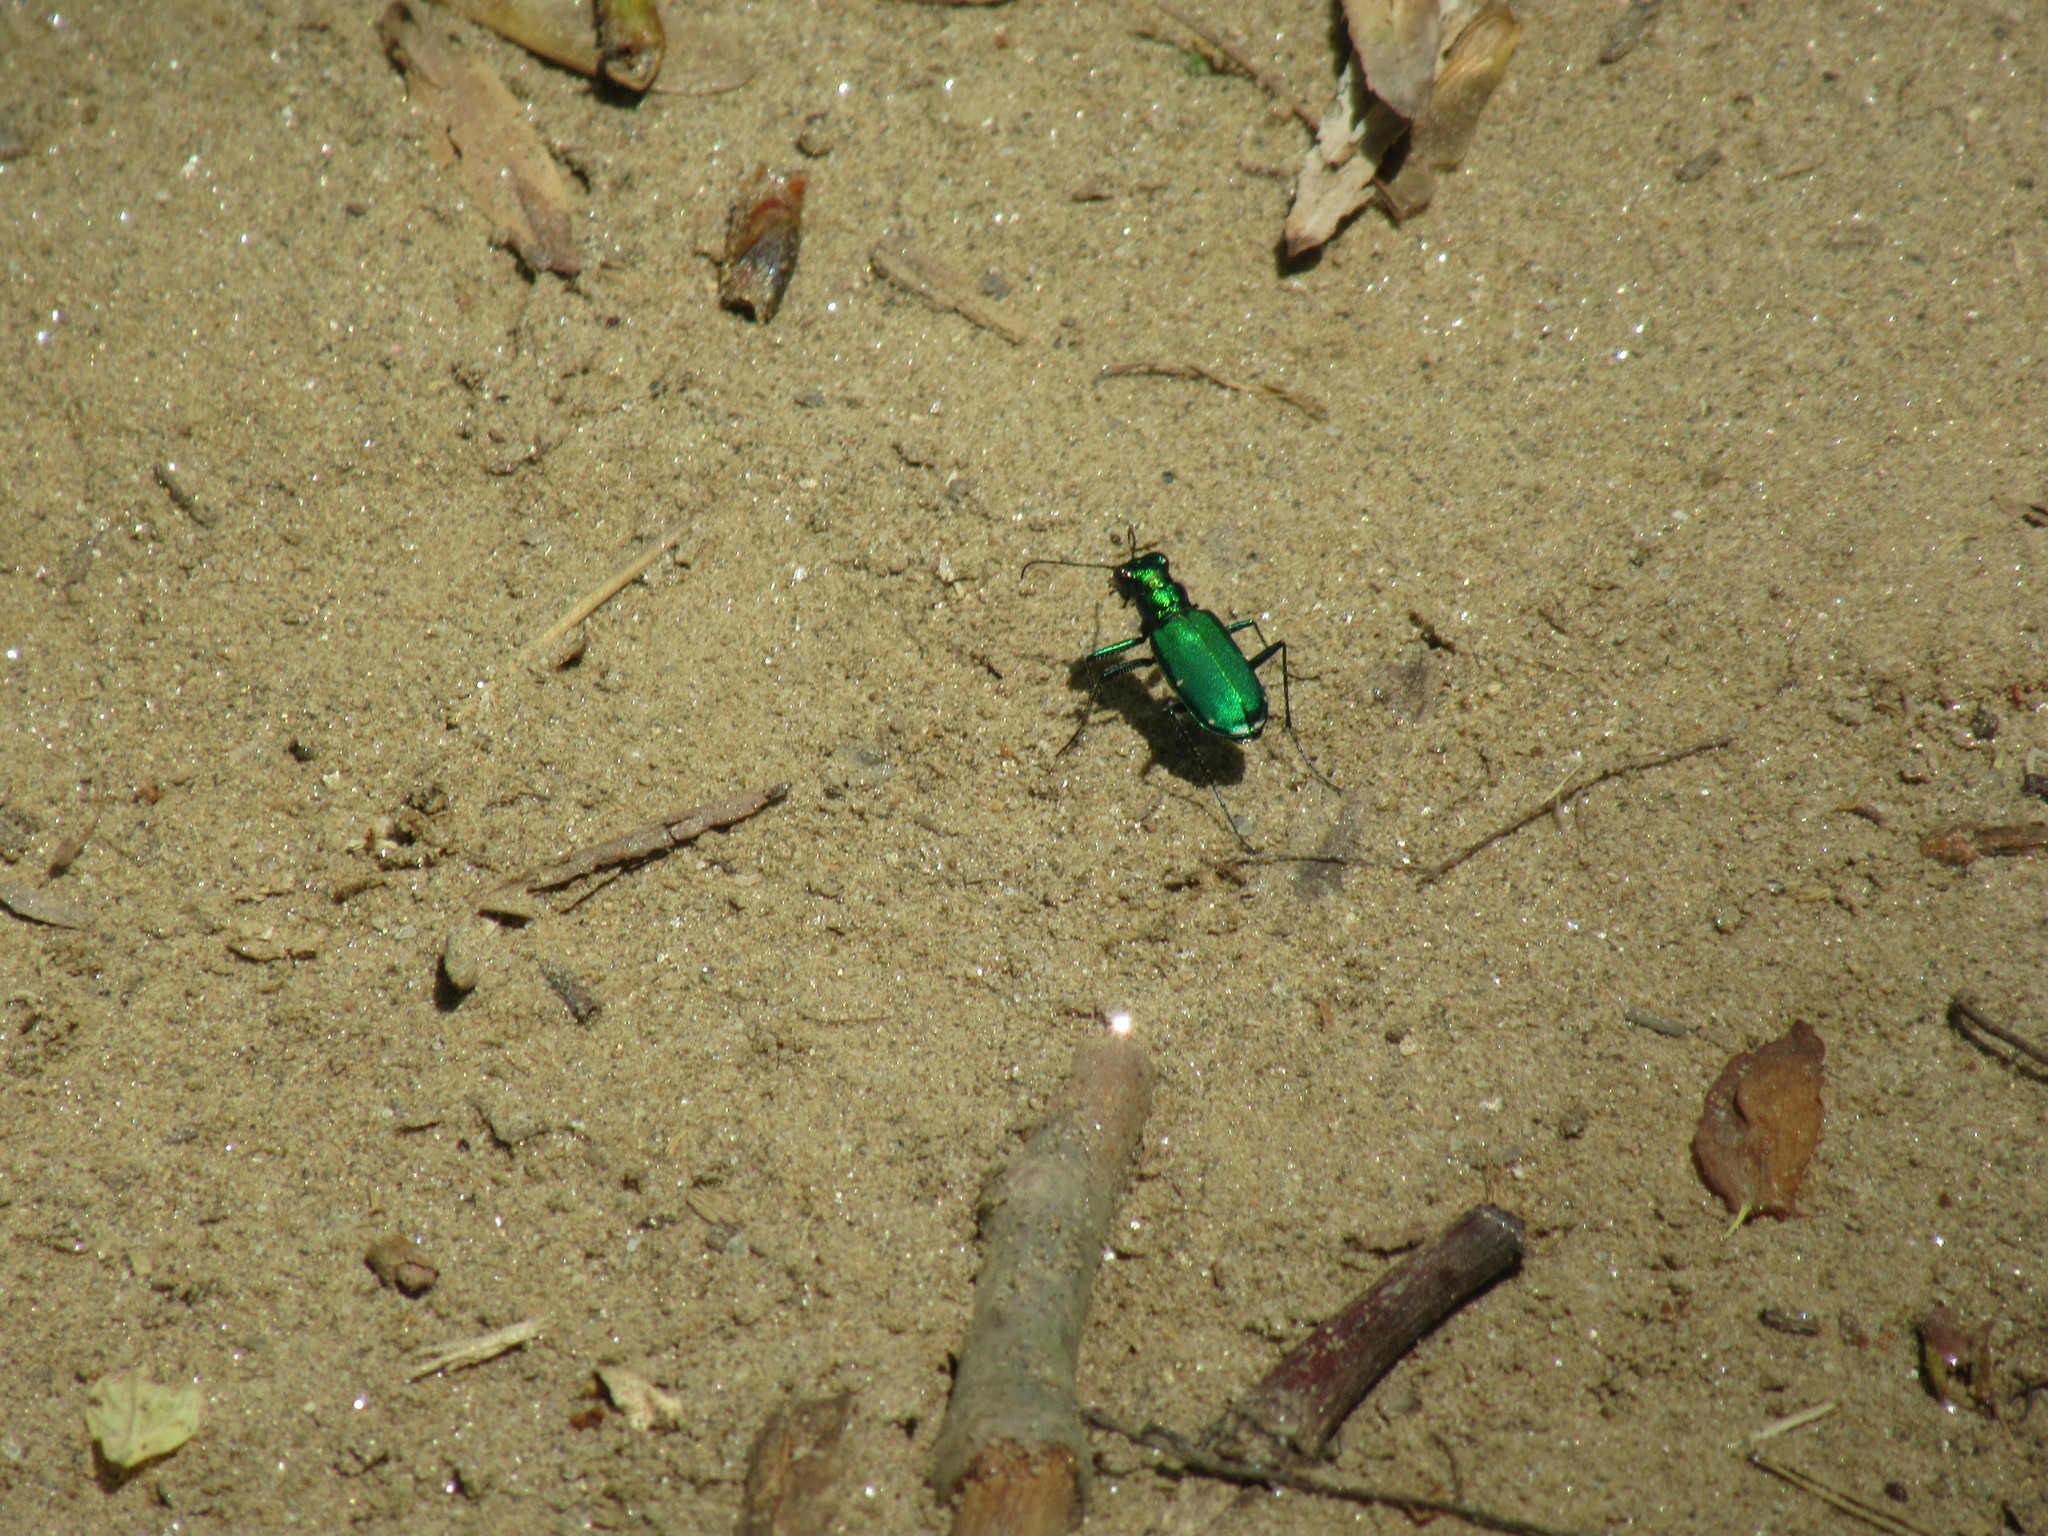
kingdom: Animalia
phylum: Arthropoda
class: Insecta
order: Coleoptera
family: Carabidae
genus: Cicindela
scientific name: Cicindela sexguttata
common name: Six-spotted tiger beetle
